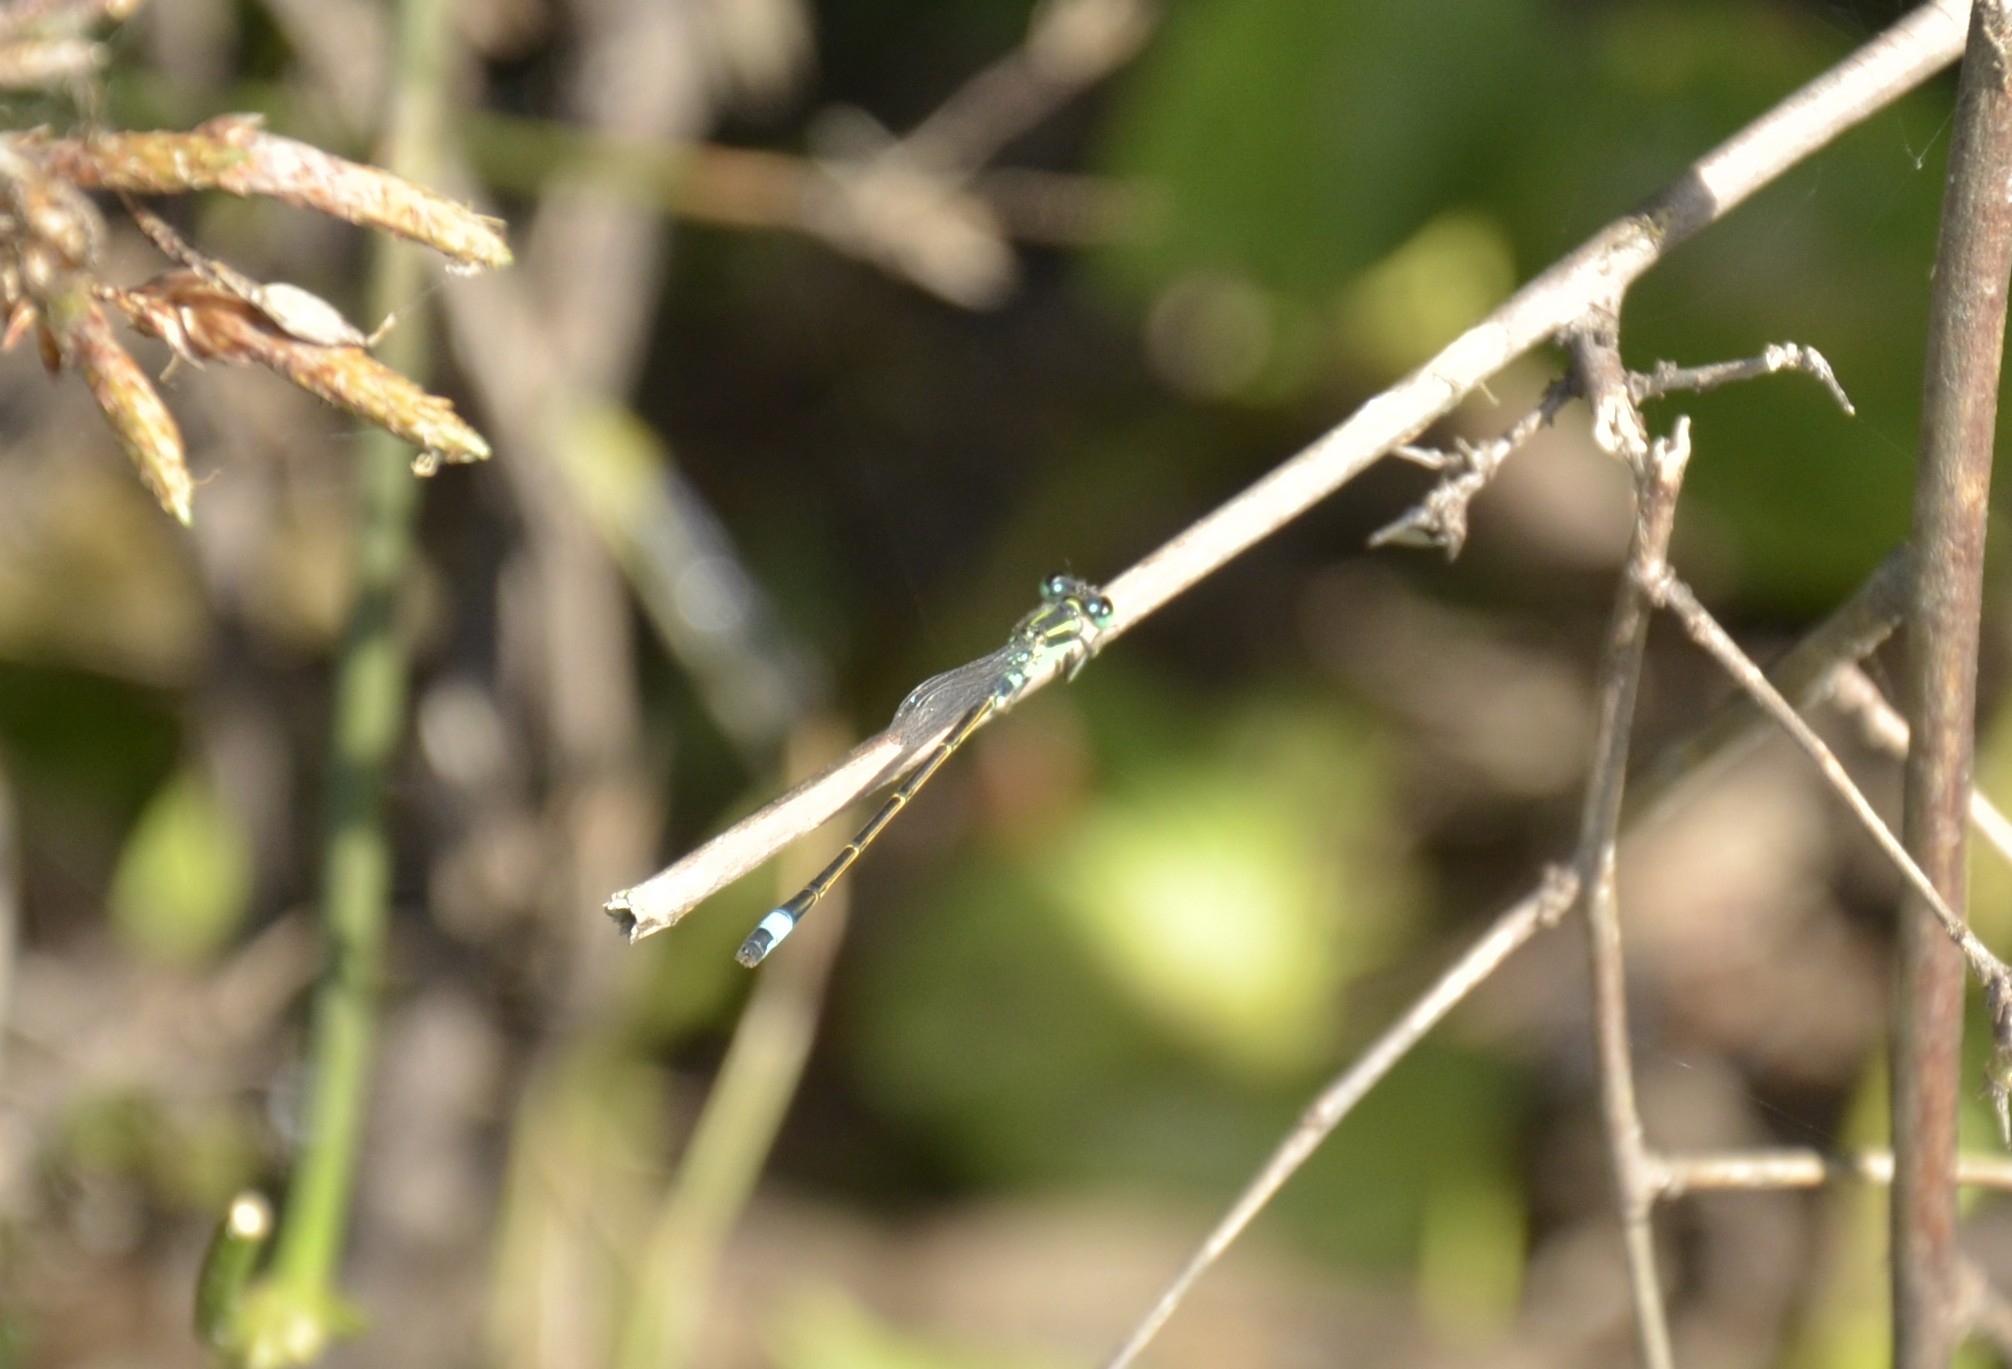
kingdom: Animalia
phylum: Arthropoda
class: Insecta
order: Odonata
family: Coenagrionidae
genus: Ischnura
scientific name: Ischnura senegalensis
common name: Tropical bluetail
